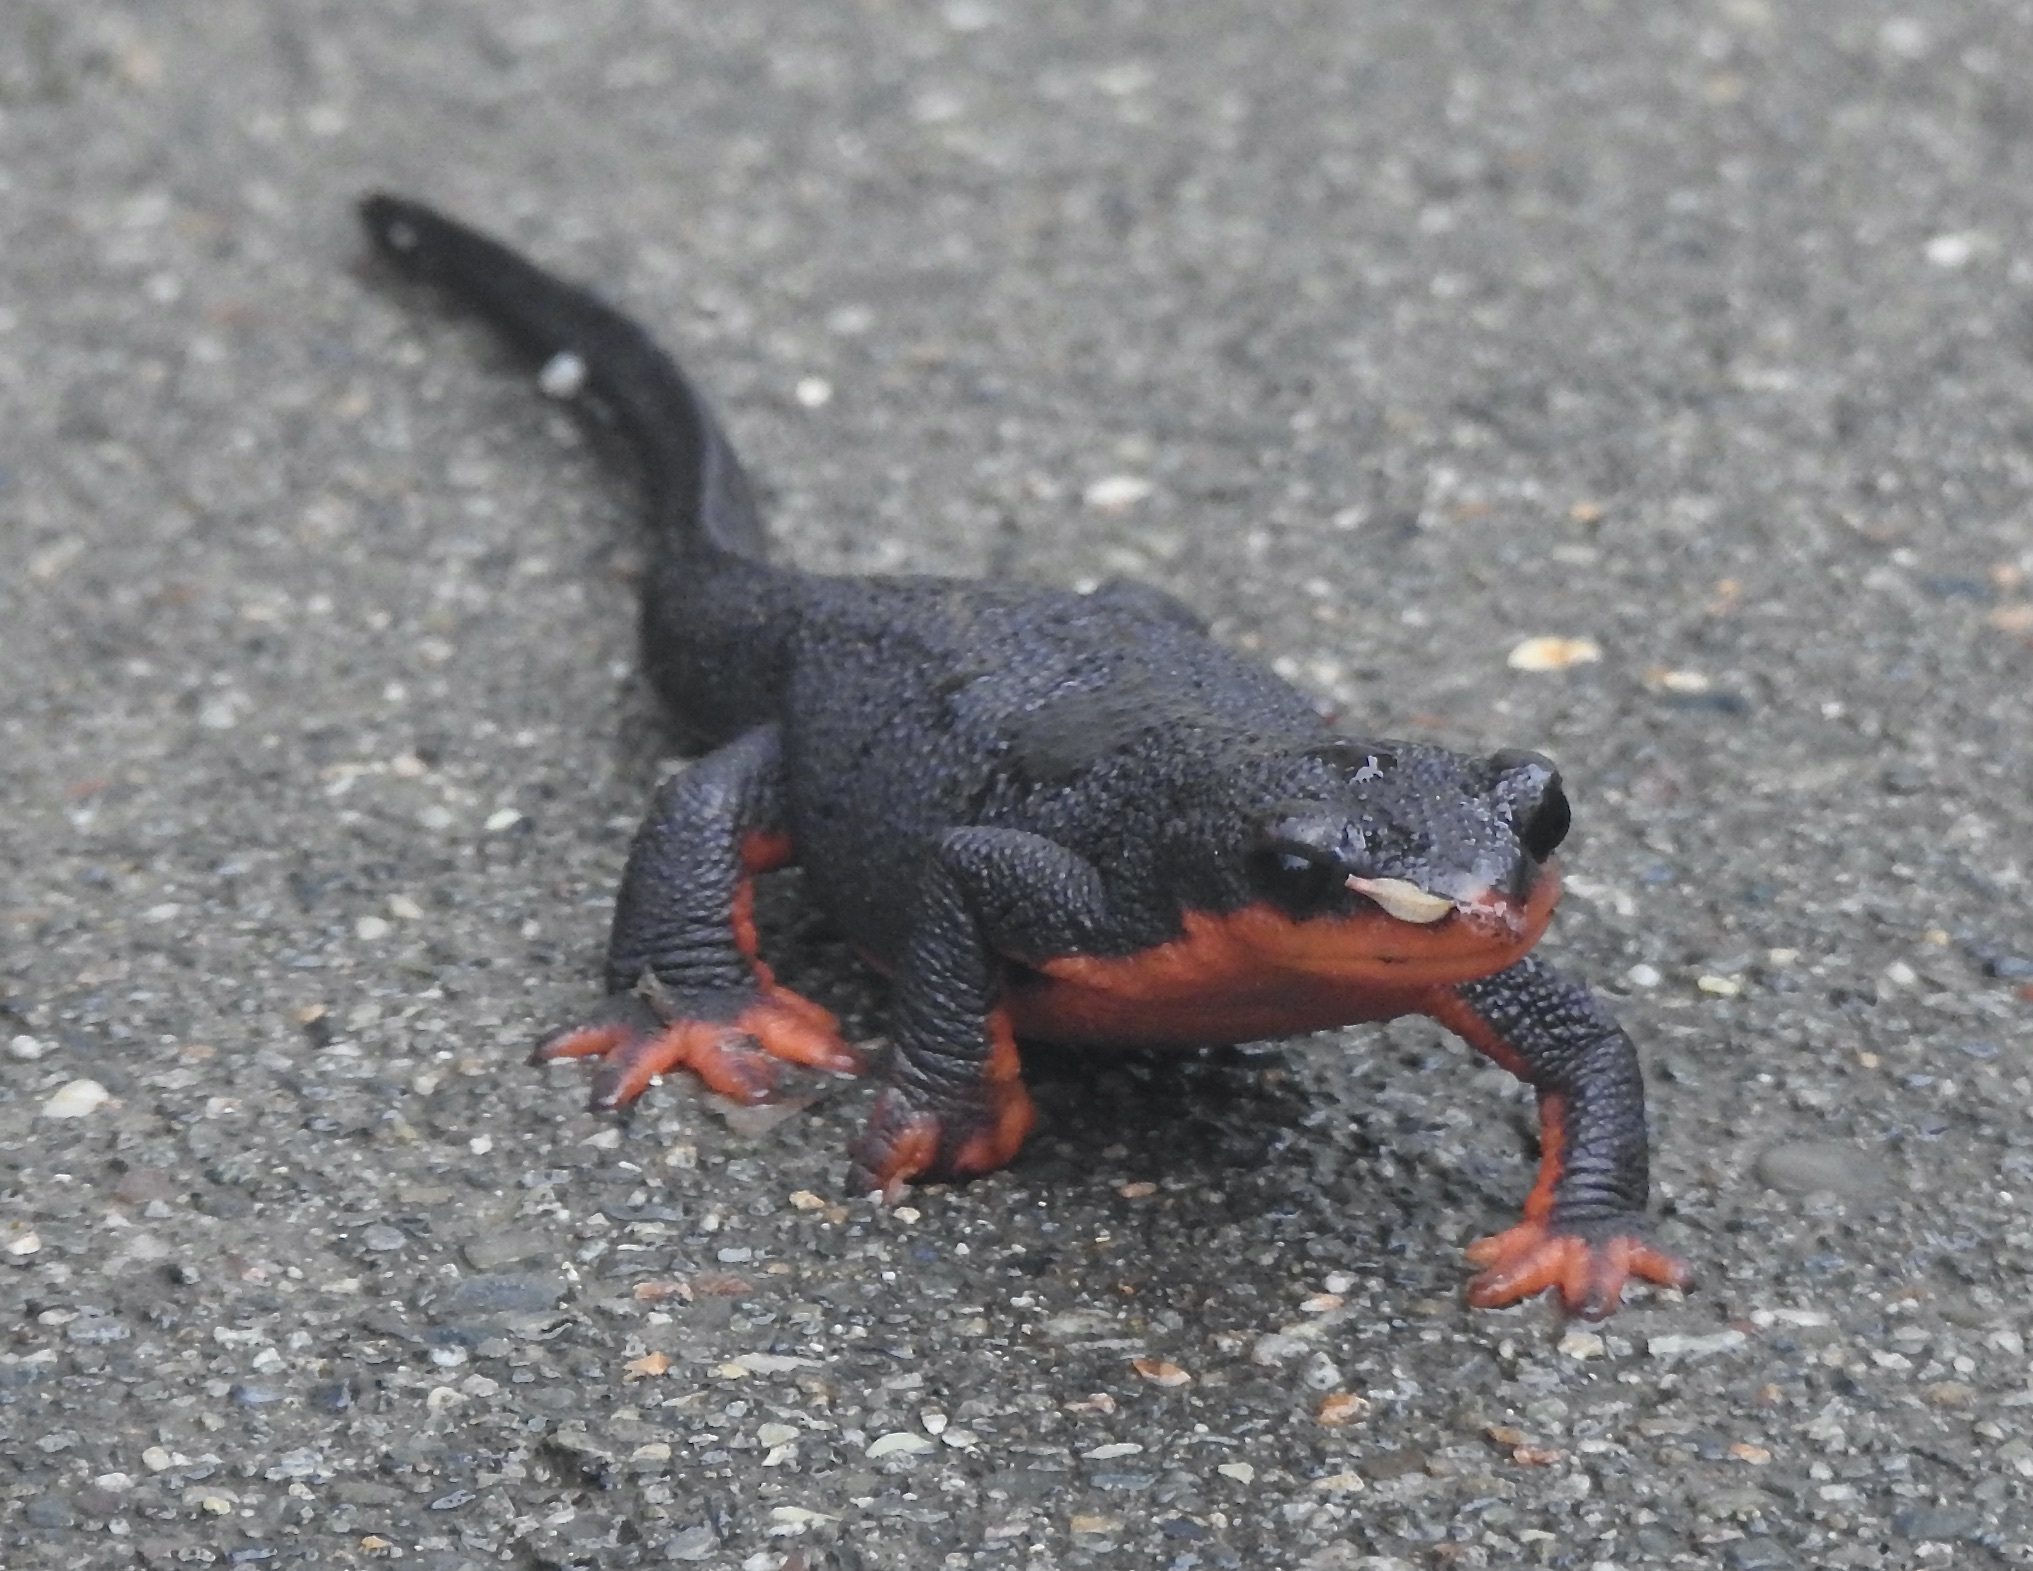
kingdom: Animalia
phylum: Chordata
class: Amphibia
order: Caudata
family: Salamandridae
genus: Taricha
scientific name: Taricha rivularis
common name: Red-bellied newt
